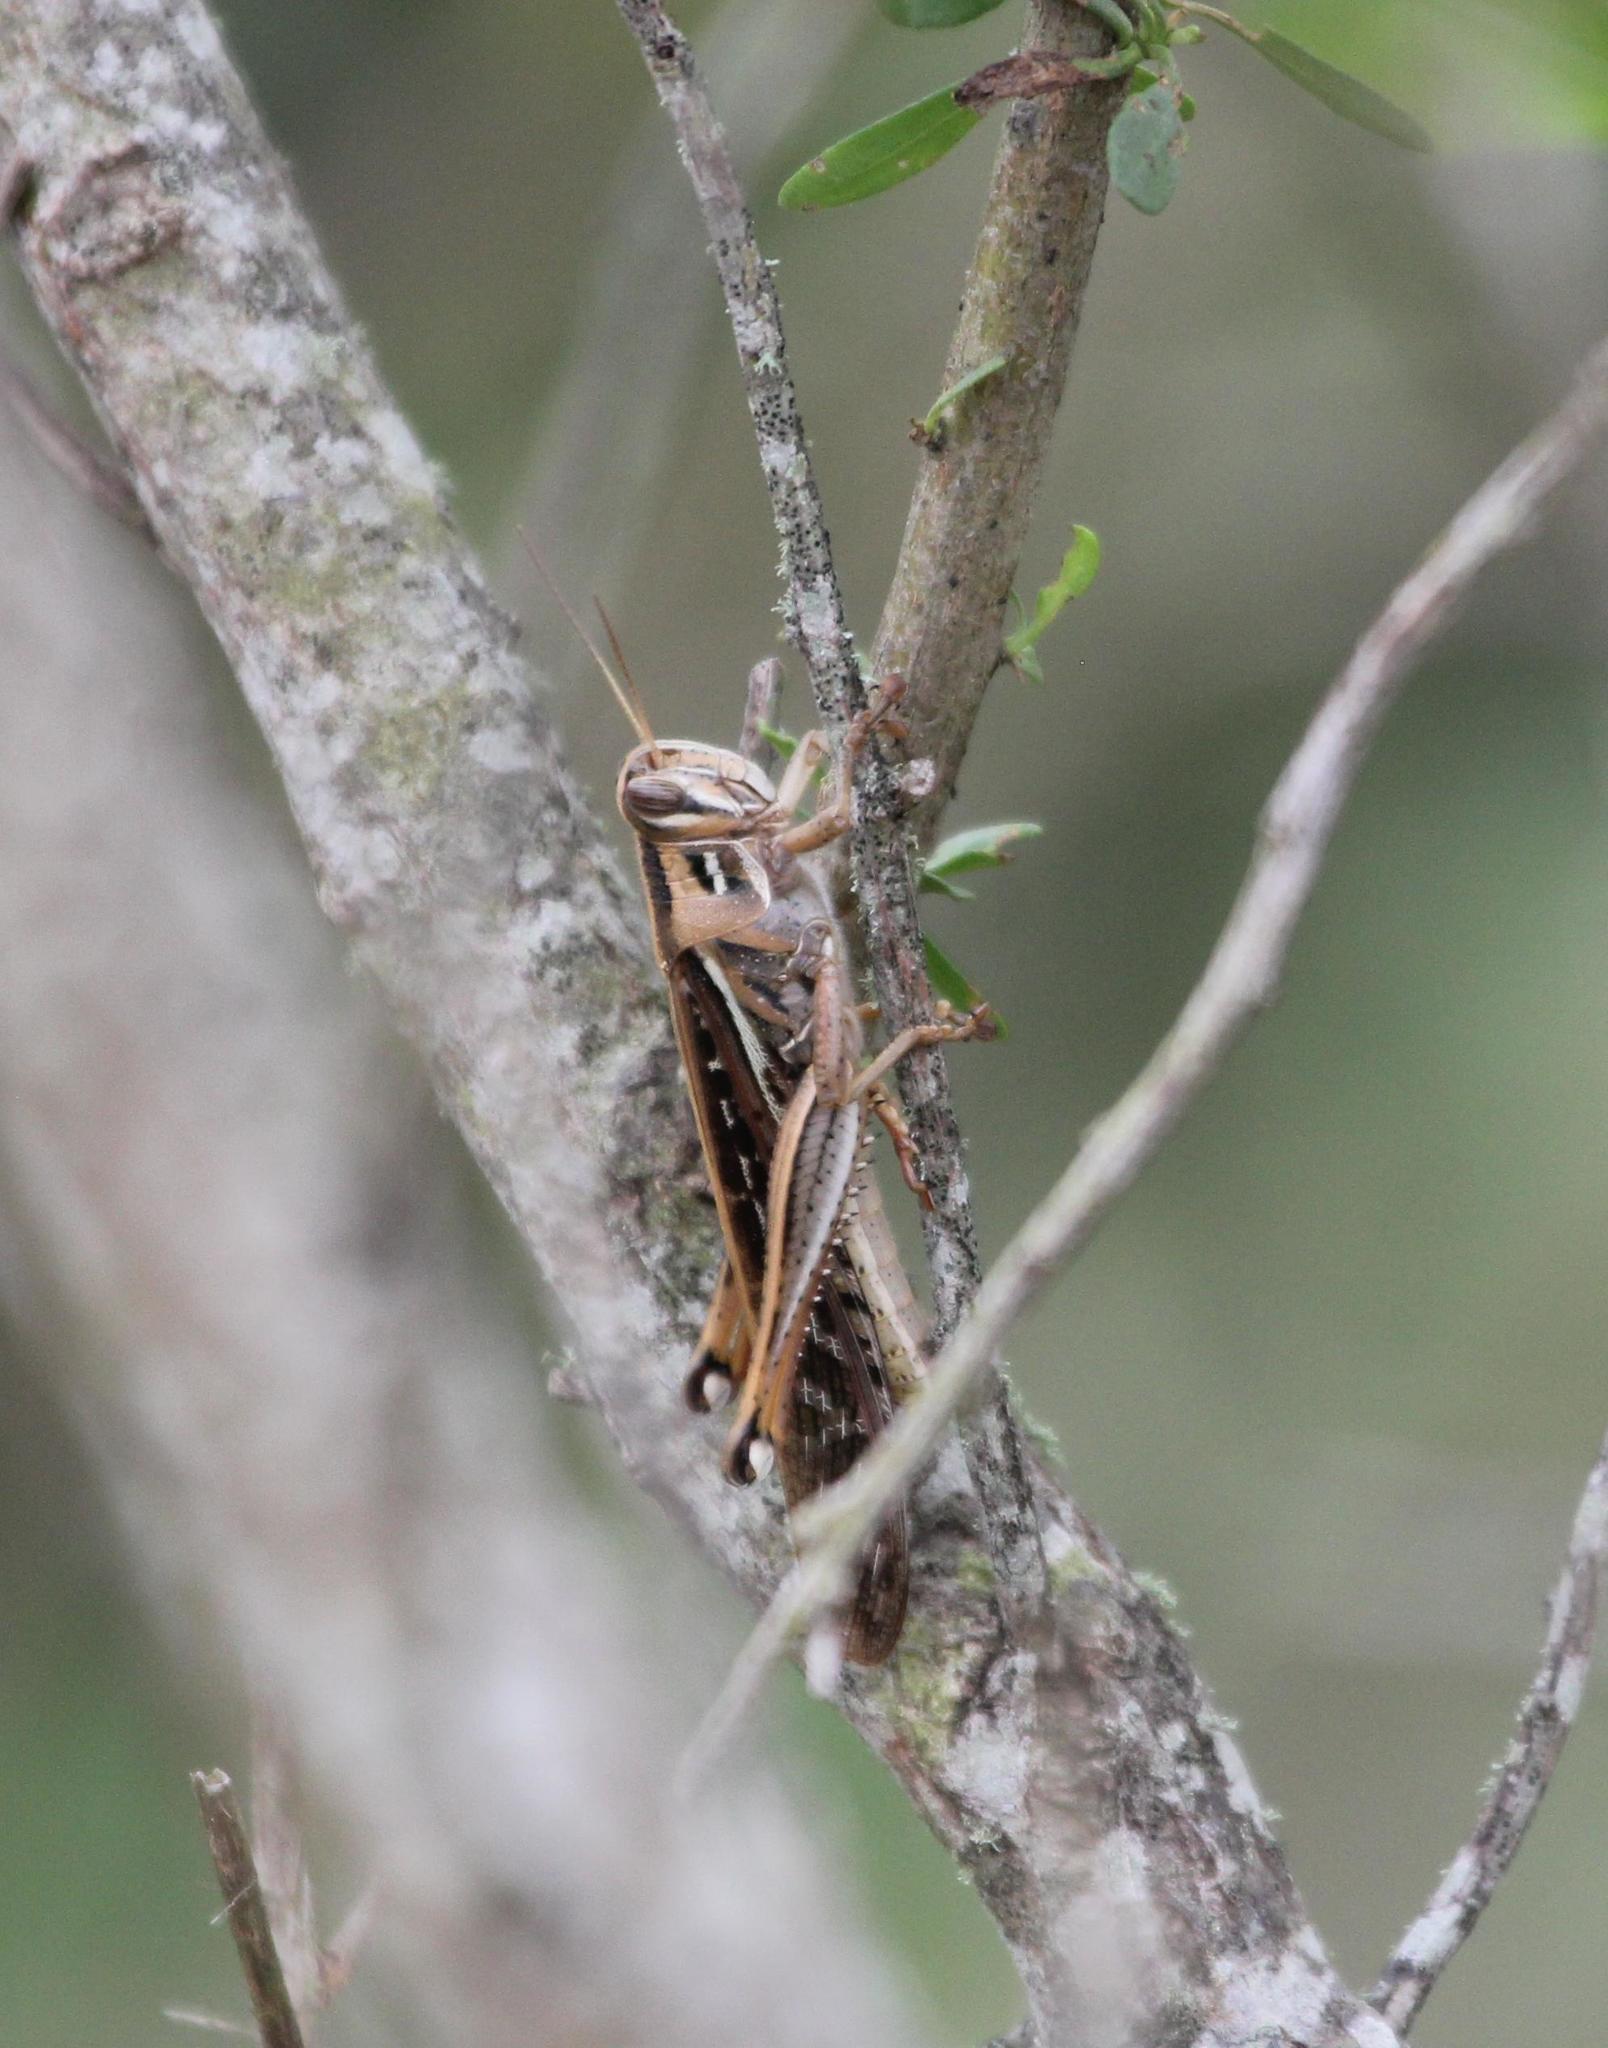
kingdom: Animalia
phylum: Arthropoda
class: Insecta
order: Orthoptera
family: Acrididae
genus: Schistocerca
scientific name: Schistocerca americana
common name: American bird locust
